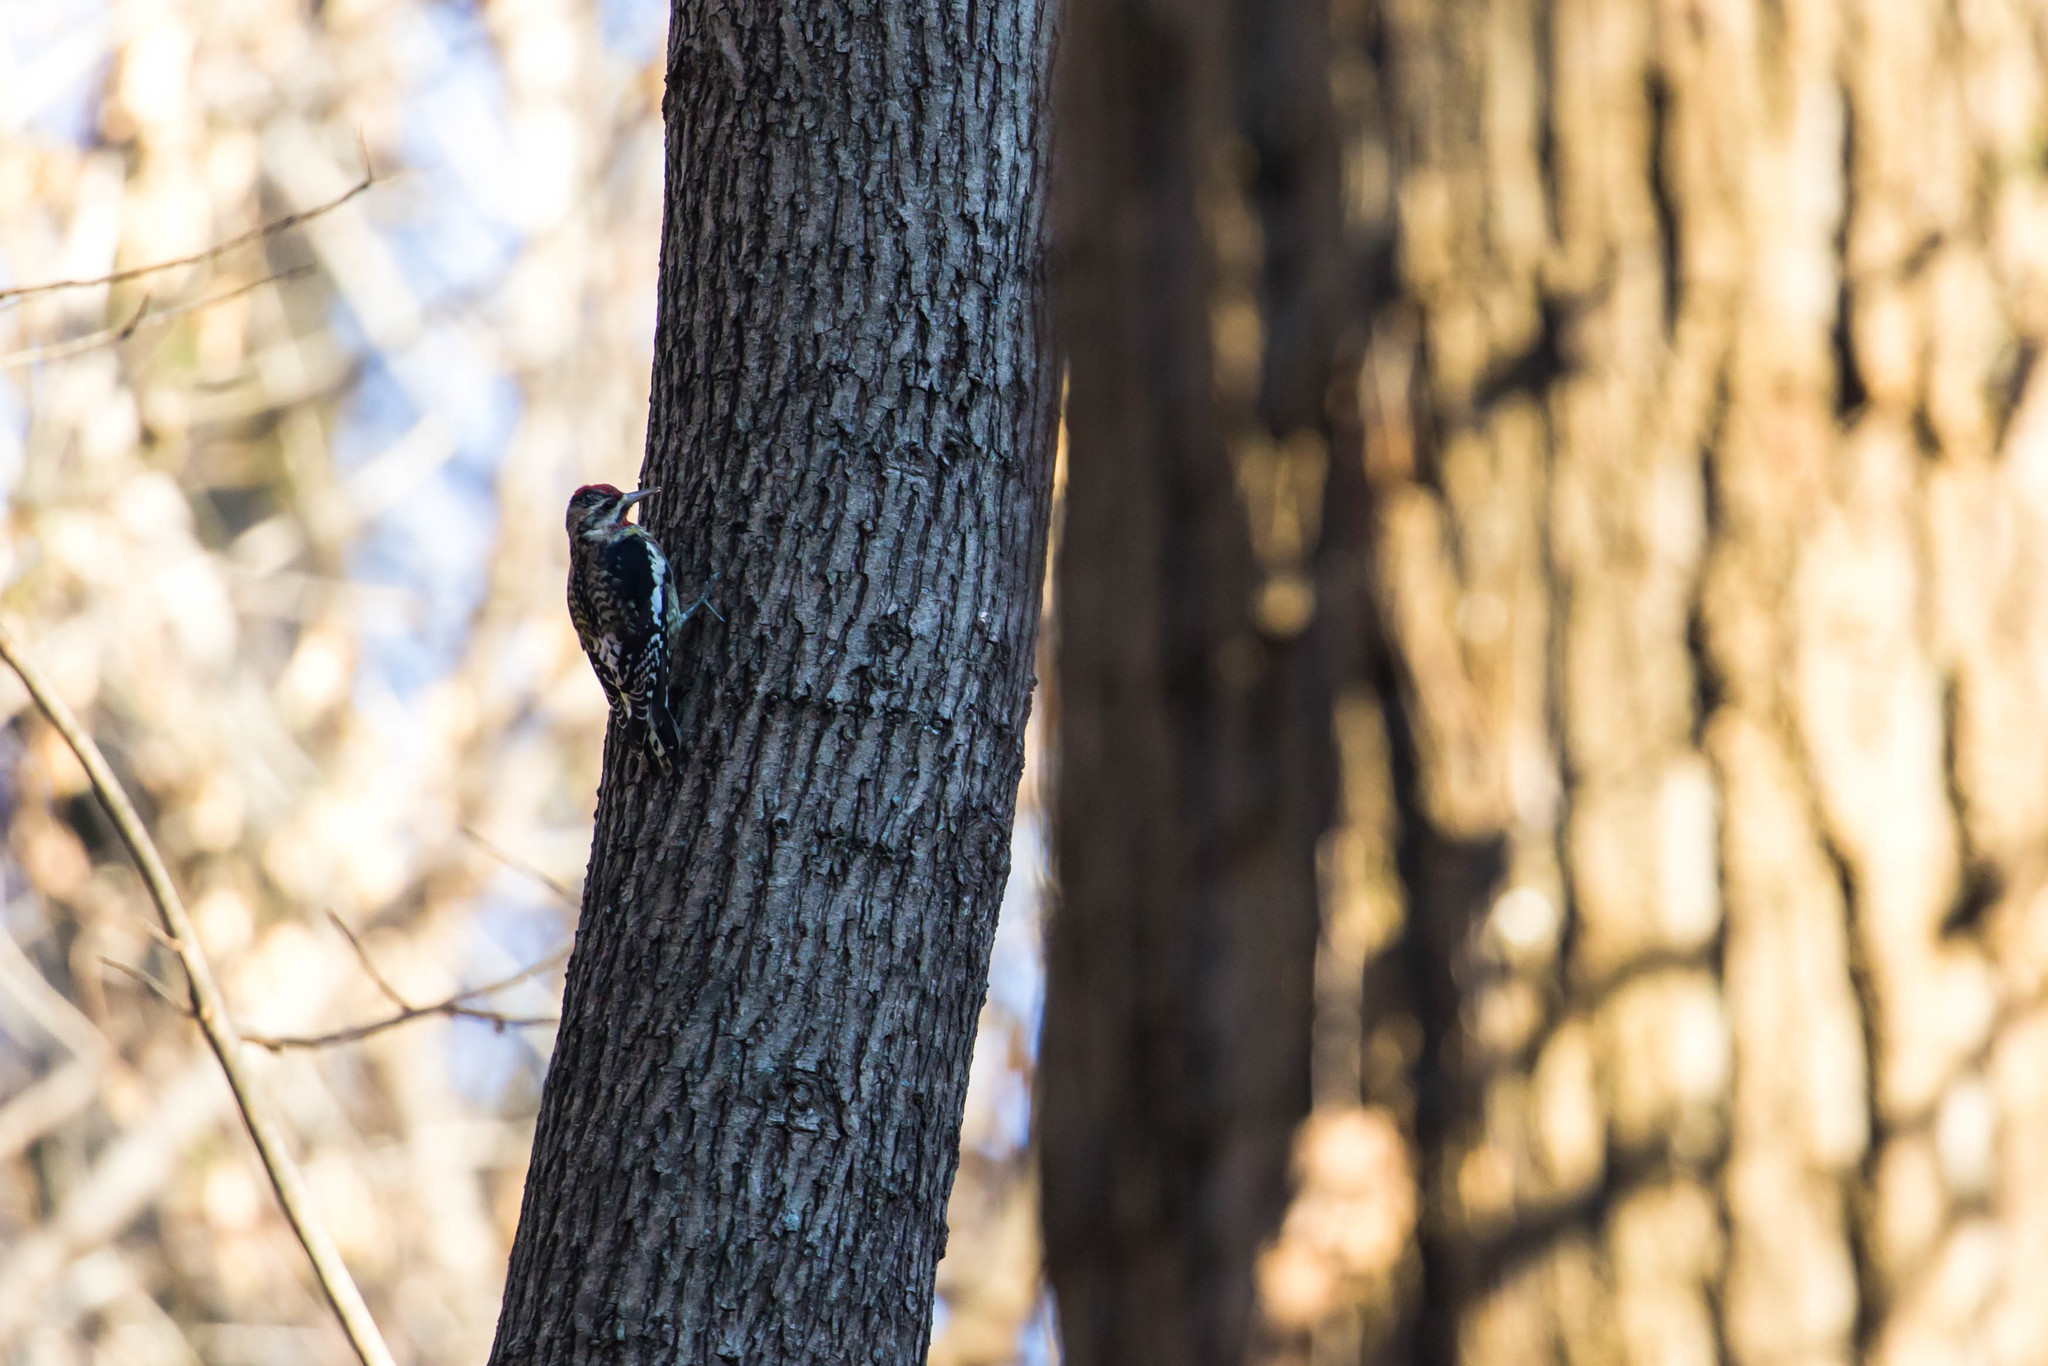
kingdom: Animalia
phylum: Chordata
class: Aves
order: Piciformes
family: Picidae
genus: Sphyrapicus
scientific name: Sphyrapicus varius
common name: Yellow-bellied sapsucker
